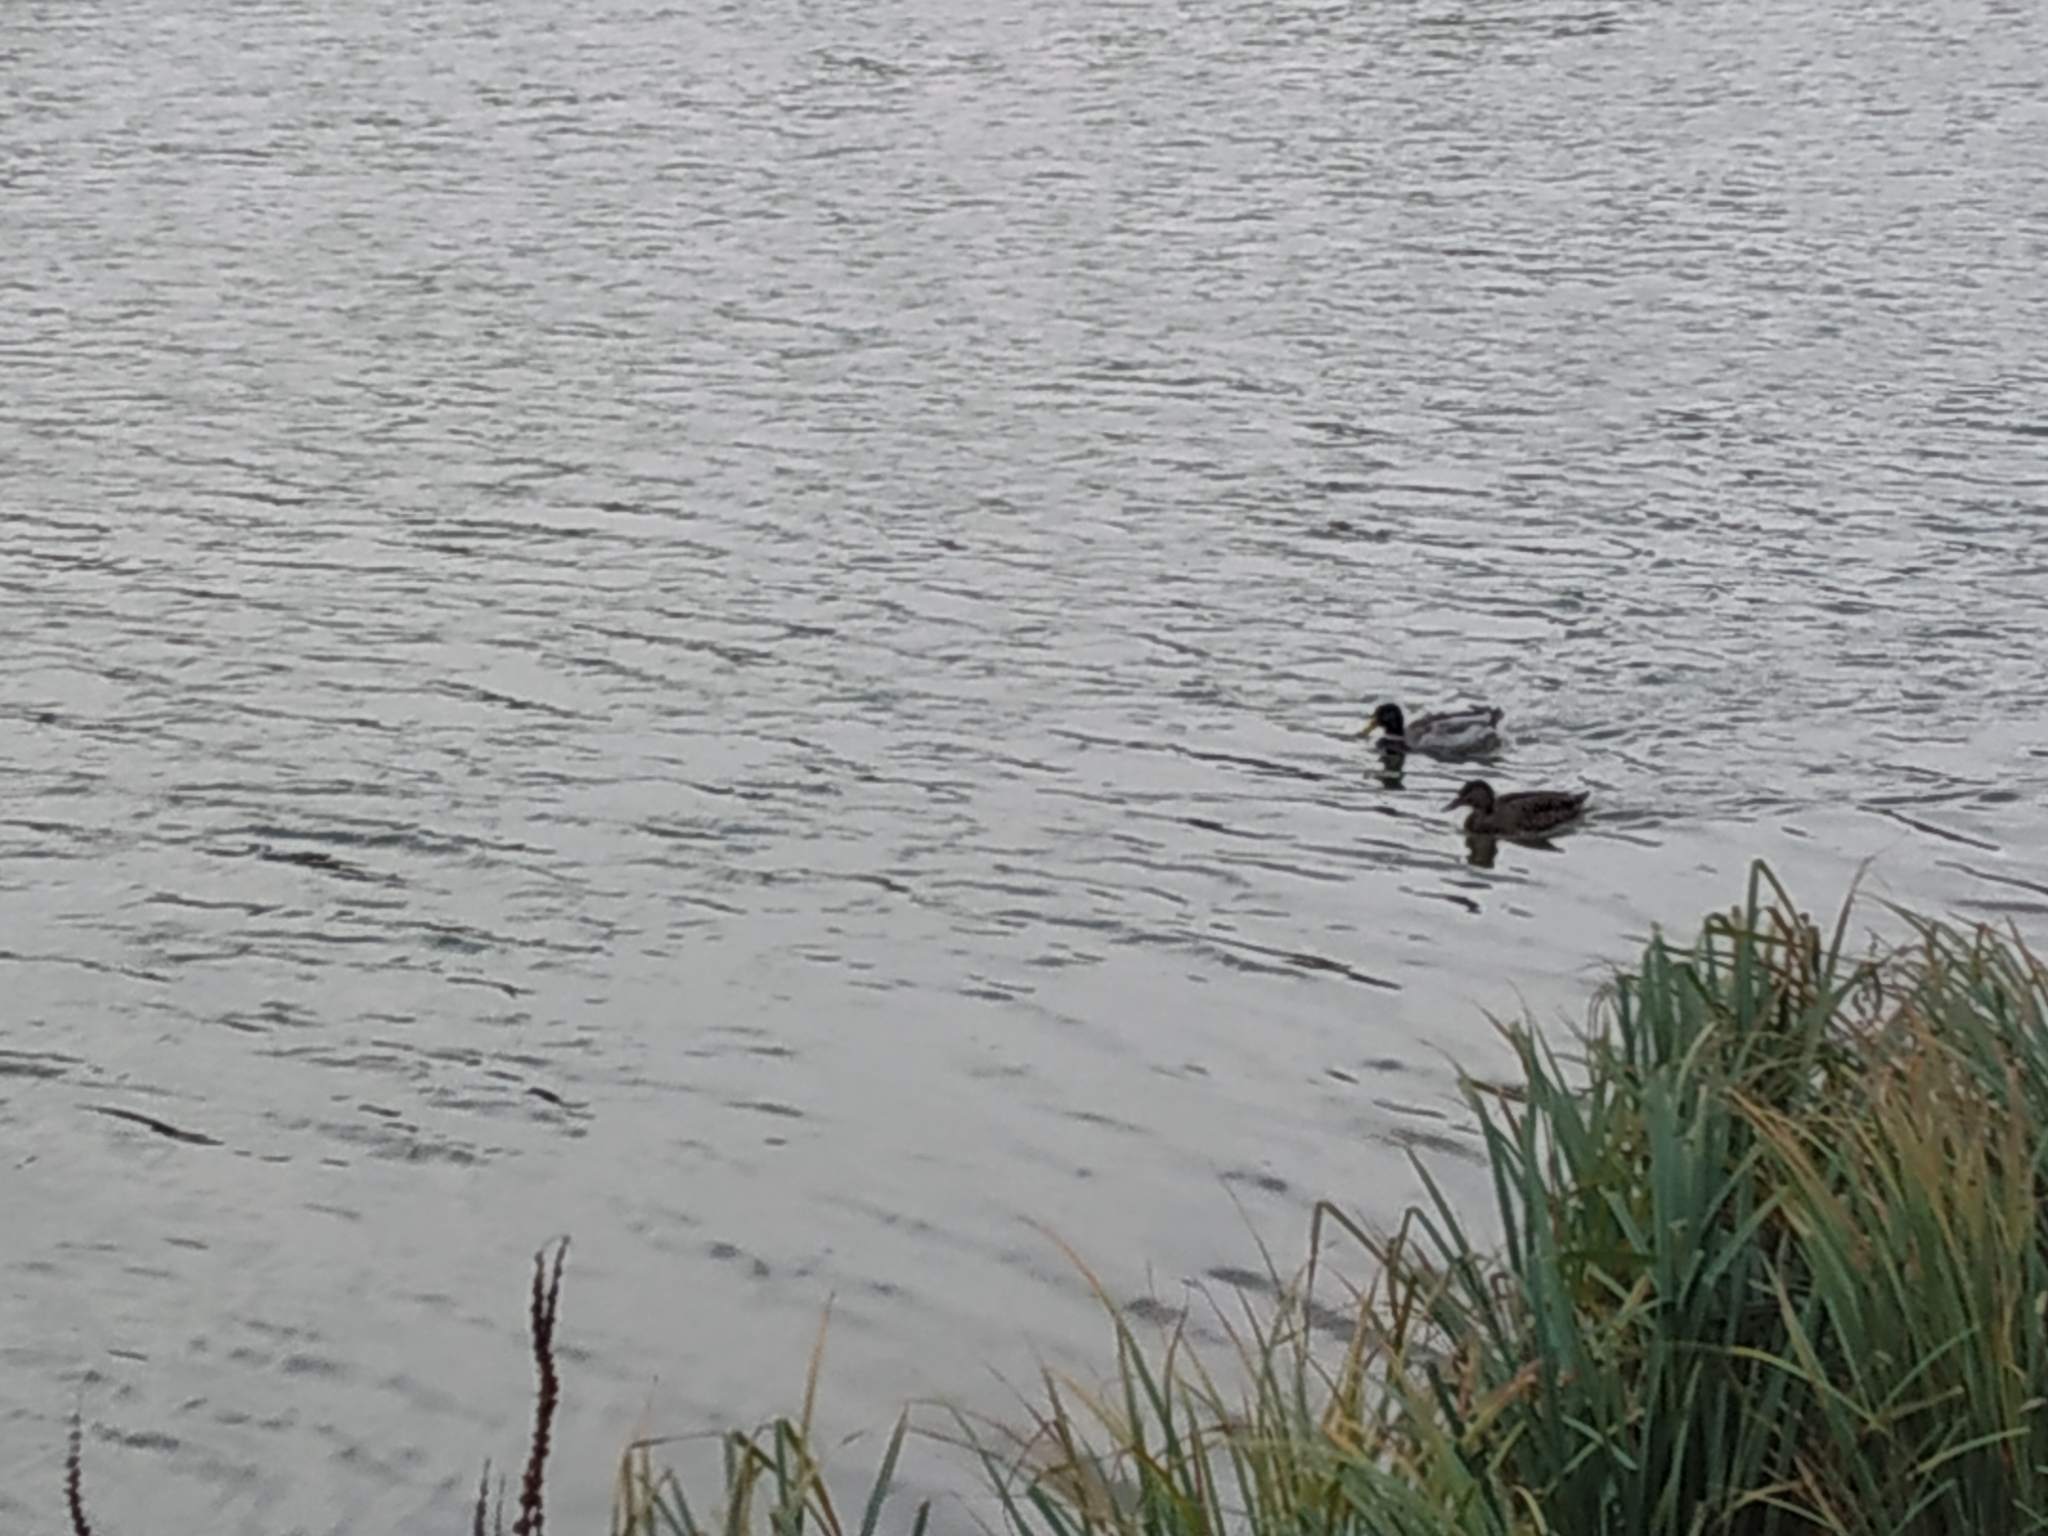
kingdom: Animalia
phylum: Chordata
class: Aves
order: Anseriformes
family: Anatidae
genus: Anas
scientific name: Anas platyrhynchos
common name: Mallard
